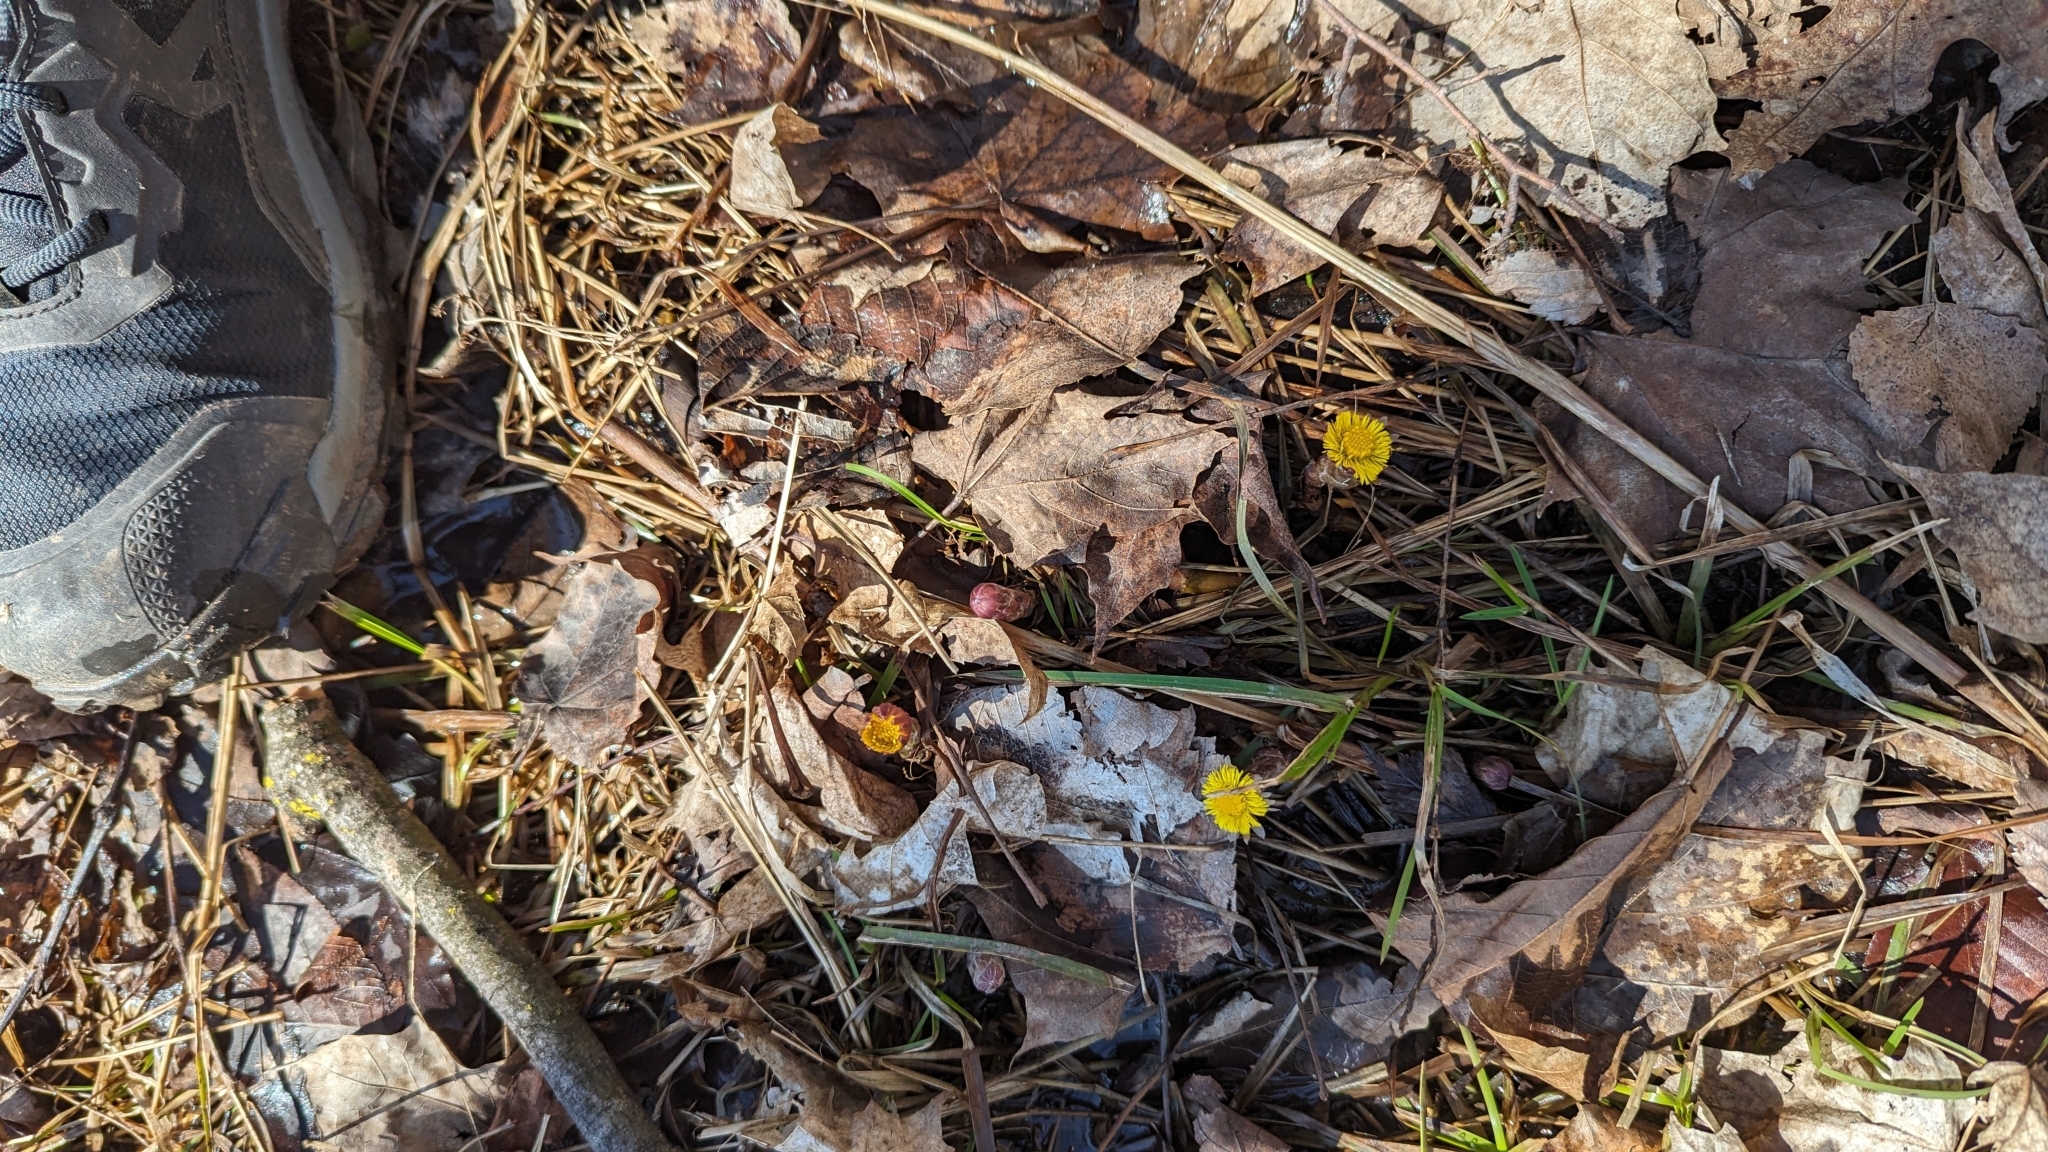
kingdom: Plantae
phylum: Tracheophyta
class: Magnoliopsida
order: Asterales
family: Asteraceae
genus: Tussilago
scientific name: Tussilago farfara
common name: Coltsfoot
